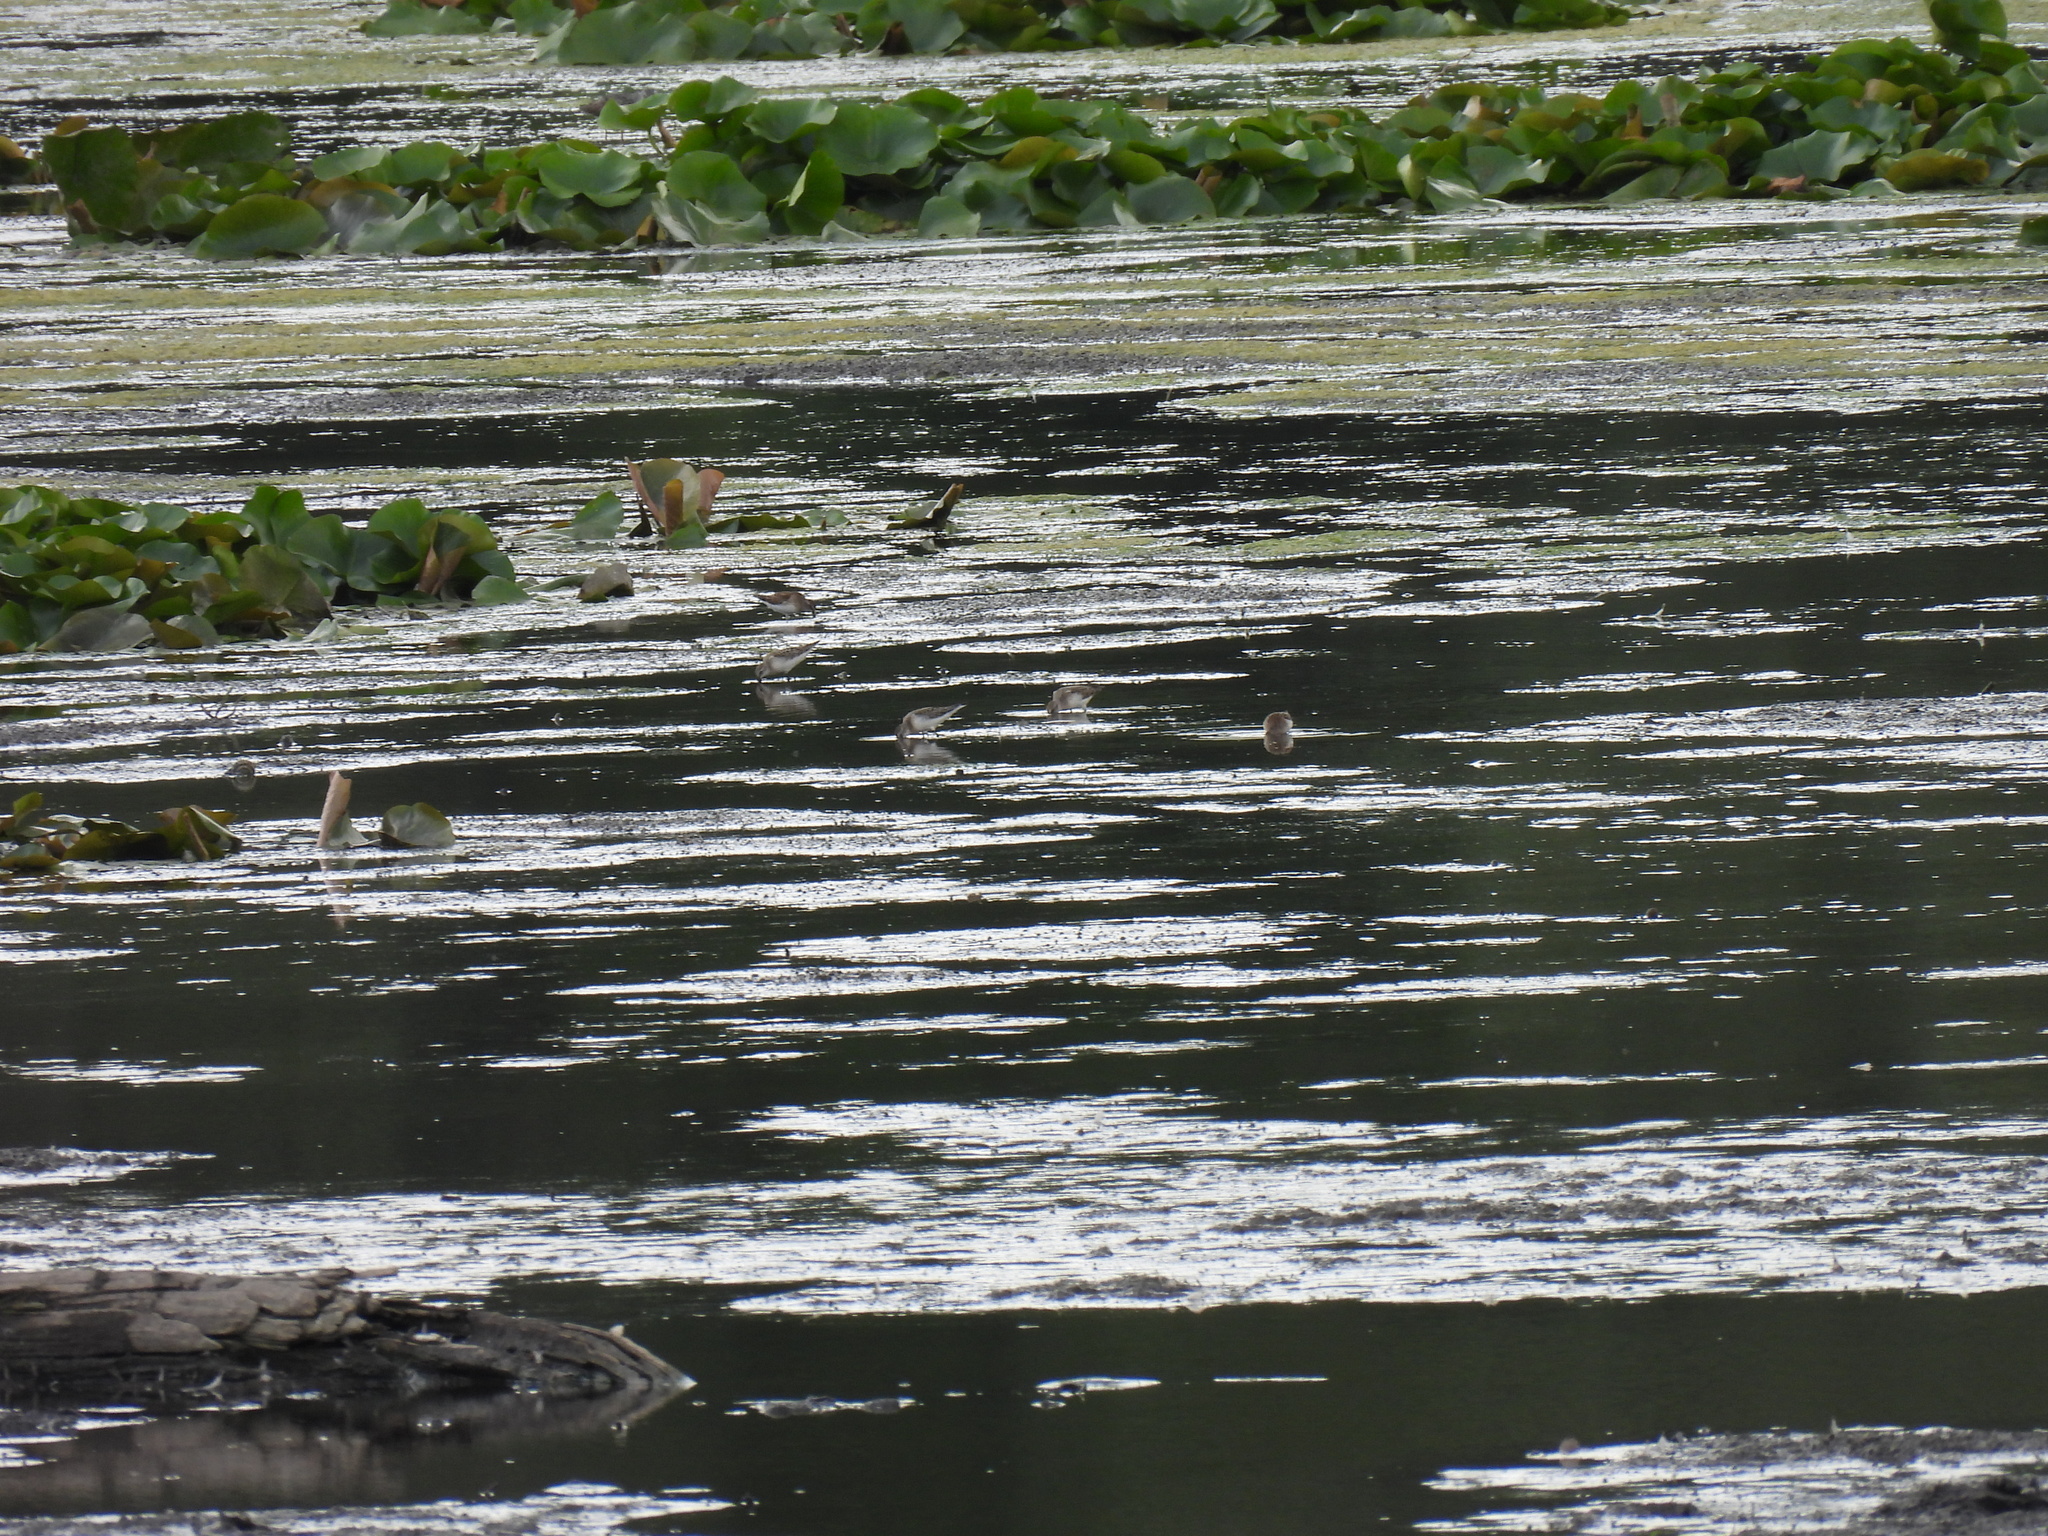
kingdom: Animalia
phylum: Chordata
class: Aves
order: Charadriiformes
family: Scolopacidae
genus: Calidris
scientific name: Calidris pusilla
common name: Semipalmated sandpiper
